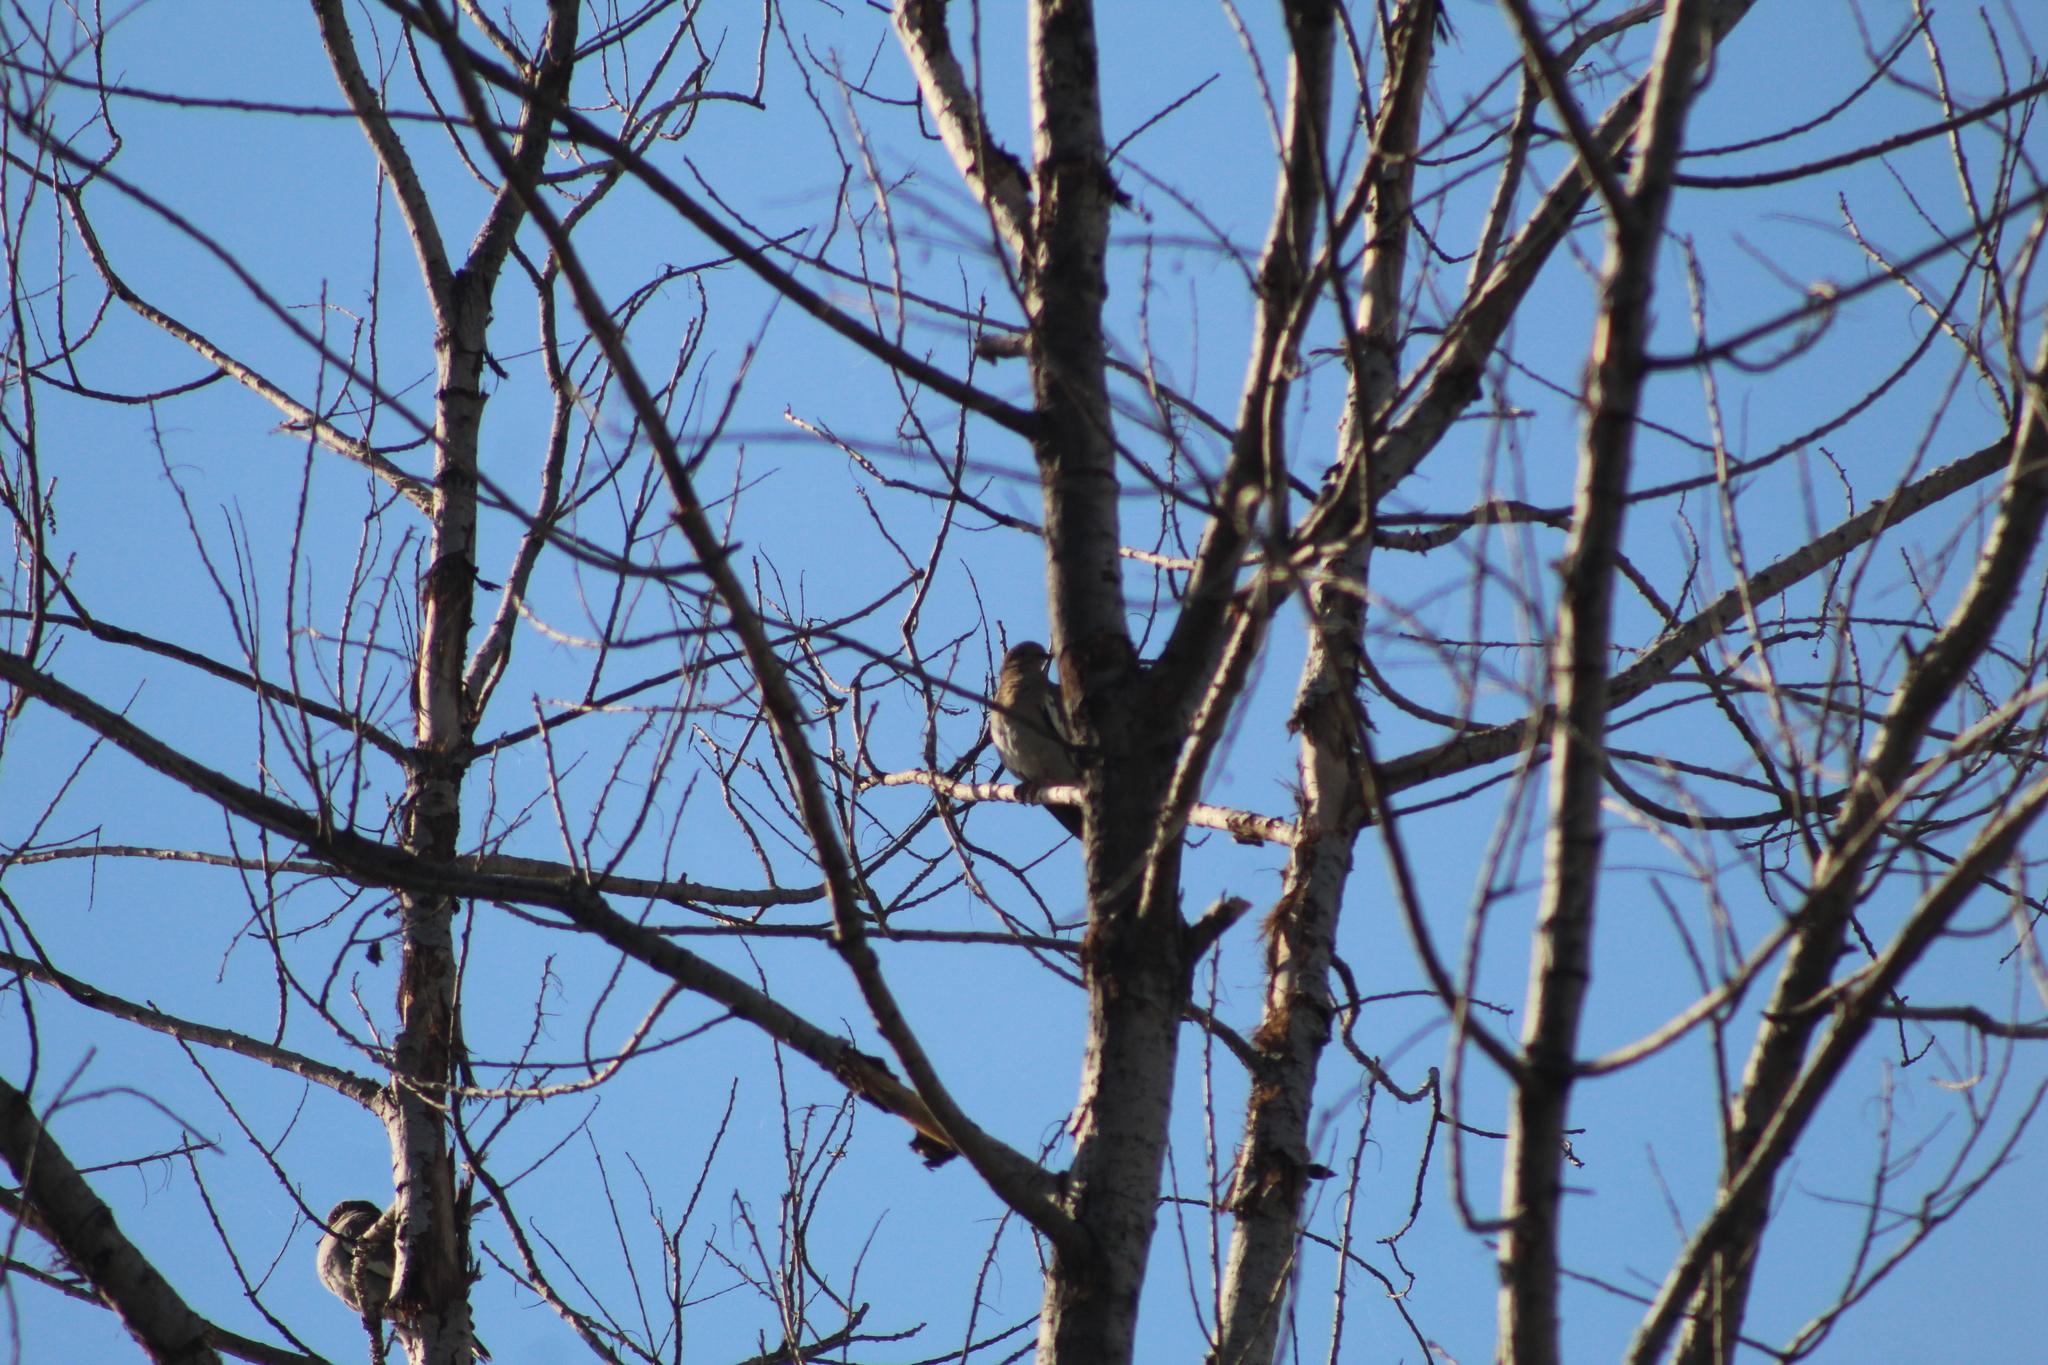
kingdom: Animalia
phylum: Chordata
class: Aves
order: Columbiformes
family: Columbidae
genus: Zenaida
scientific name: Zenaida asiatica
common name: White-winged dove
